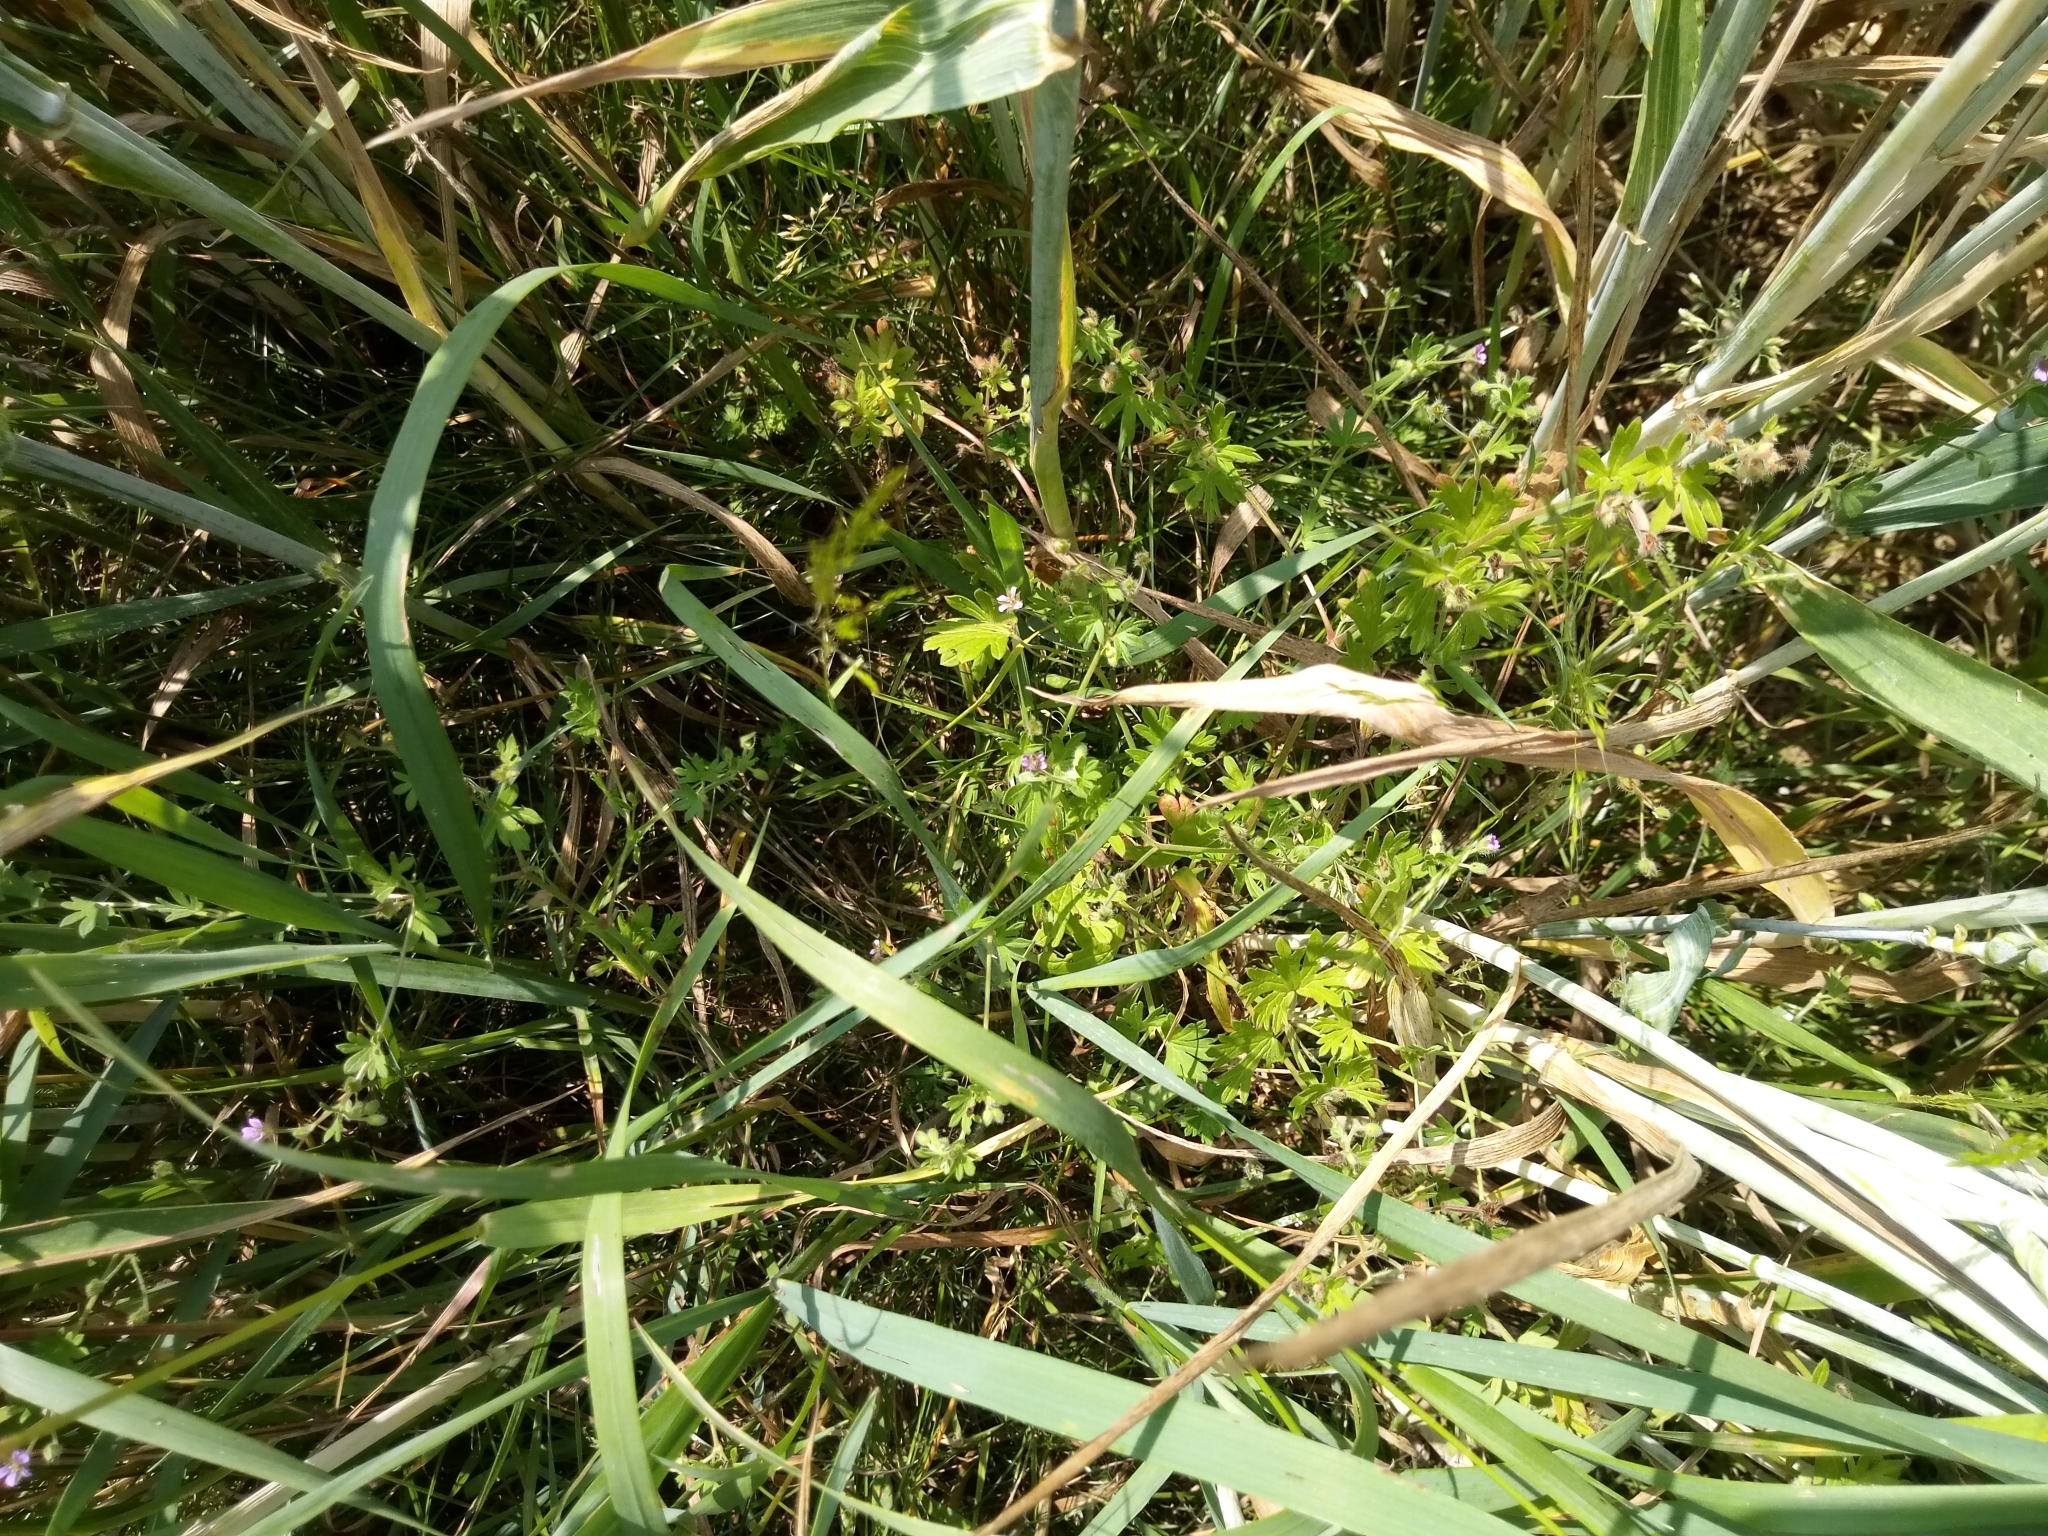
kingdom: Plantae
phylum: Tracheophyta
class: Magnoliopsida
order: Geraniales
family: Geraniaceae
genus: Geranium
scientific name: Geranium pusillum
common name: Small geranium
